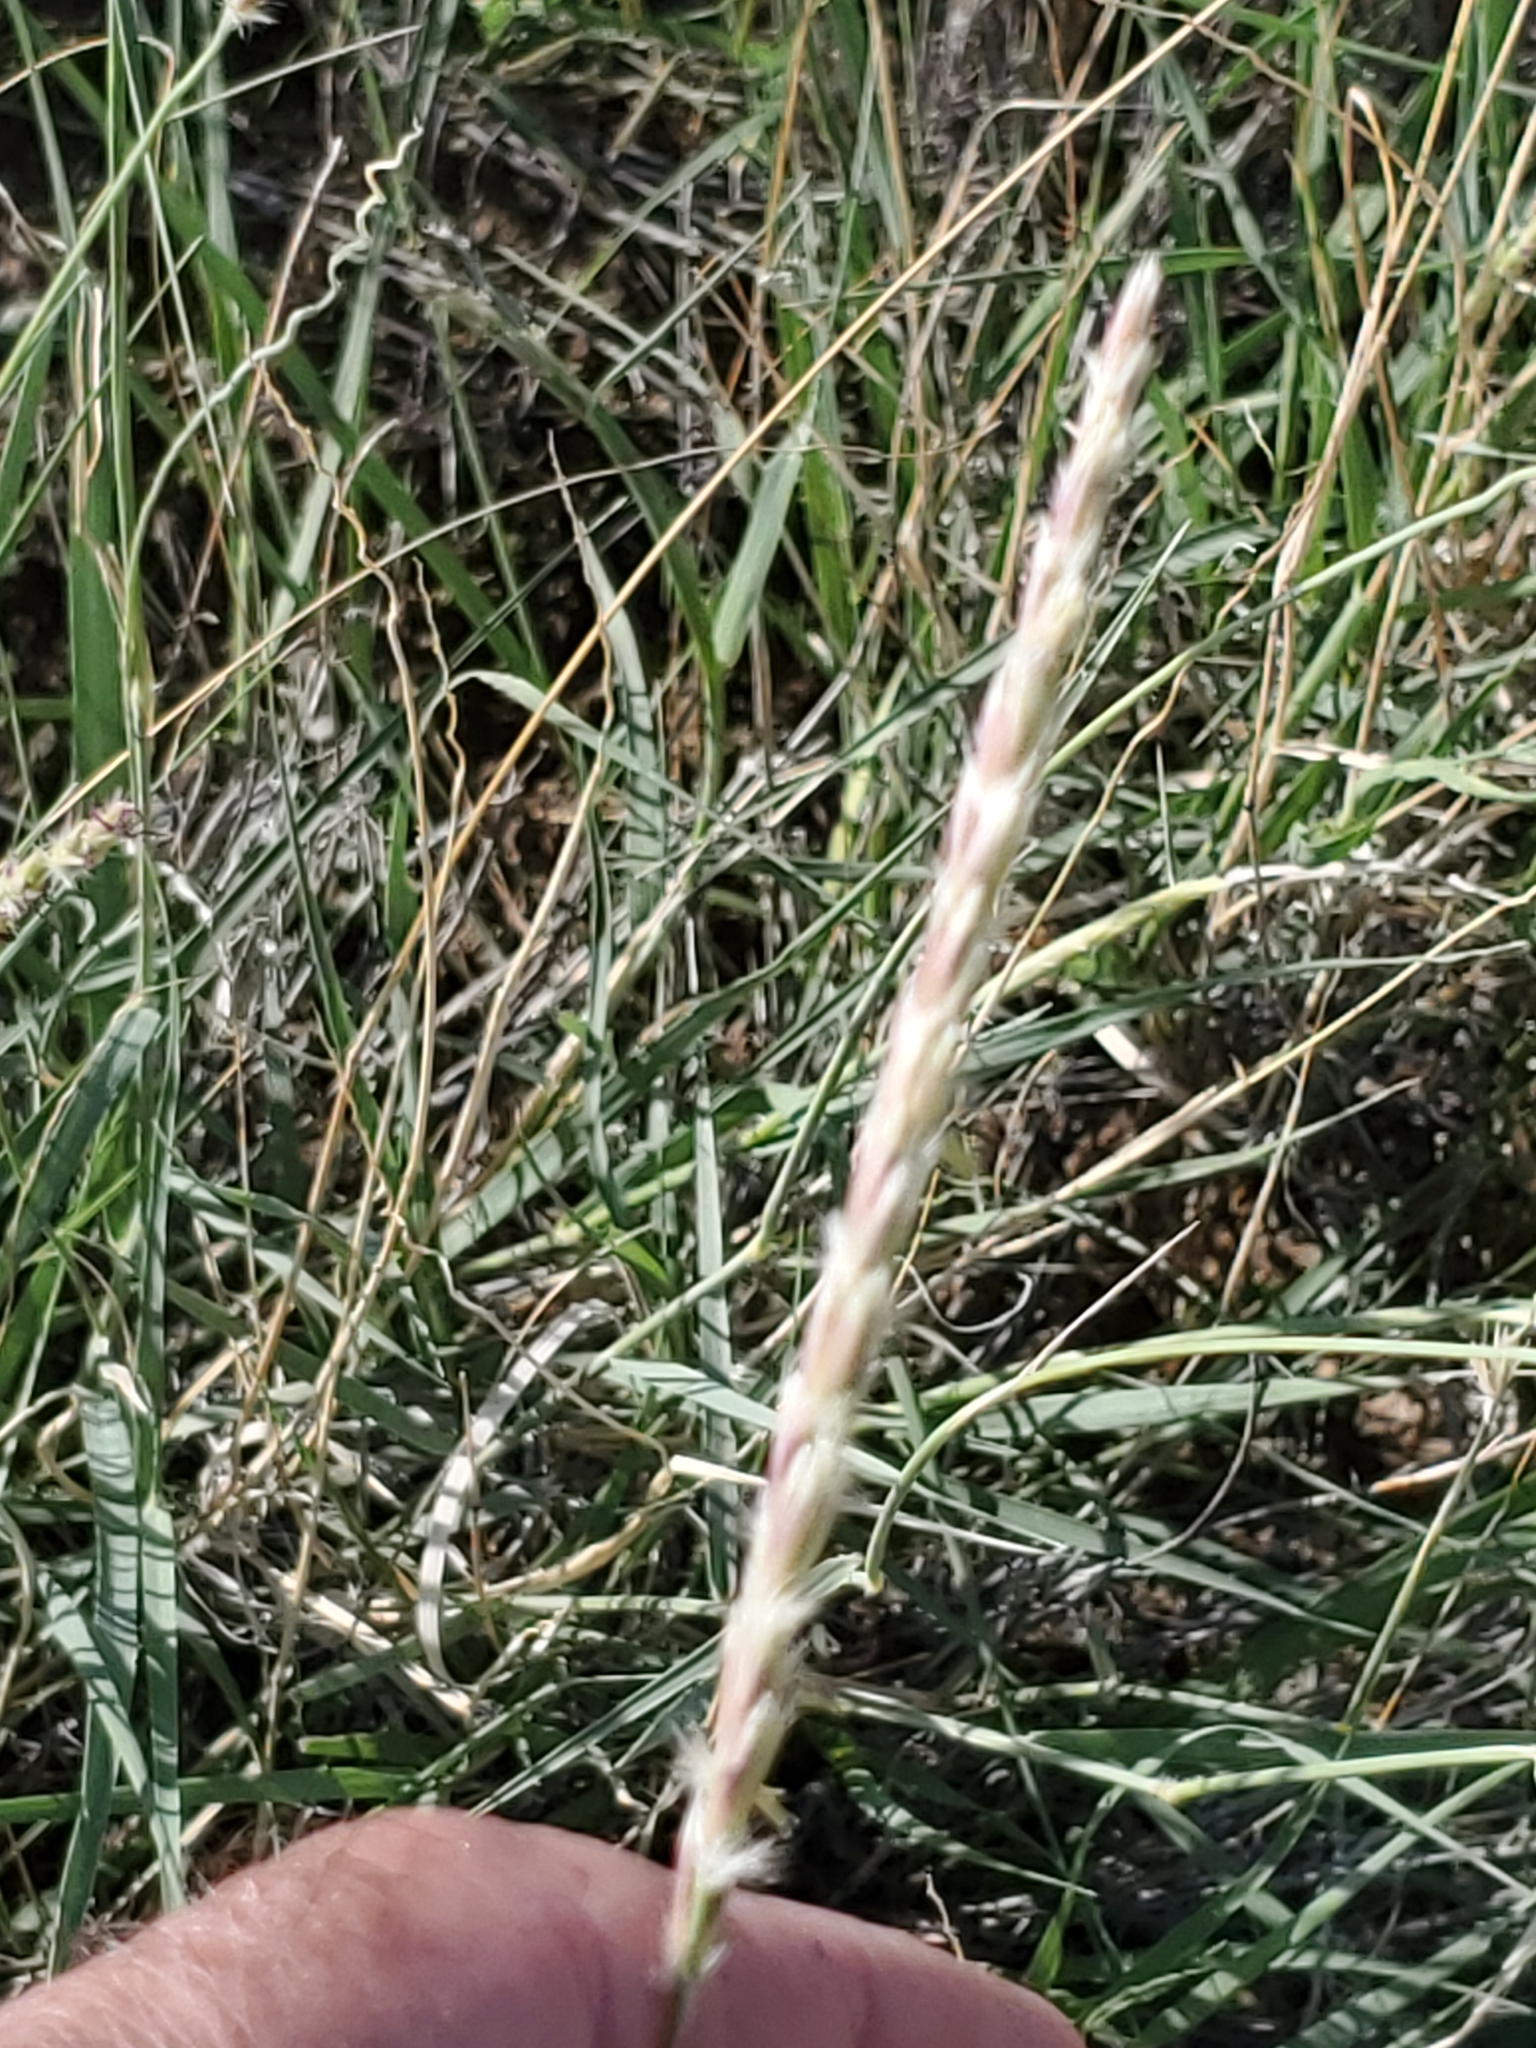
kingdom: Plantae
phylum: Tracheophyta
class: Liliopsida
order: Poales
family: Poaceae
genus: Hilaria
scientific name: Hilaria rigida
